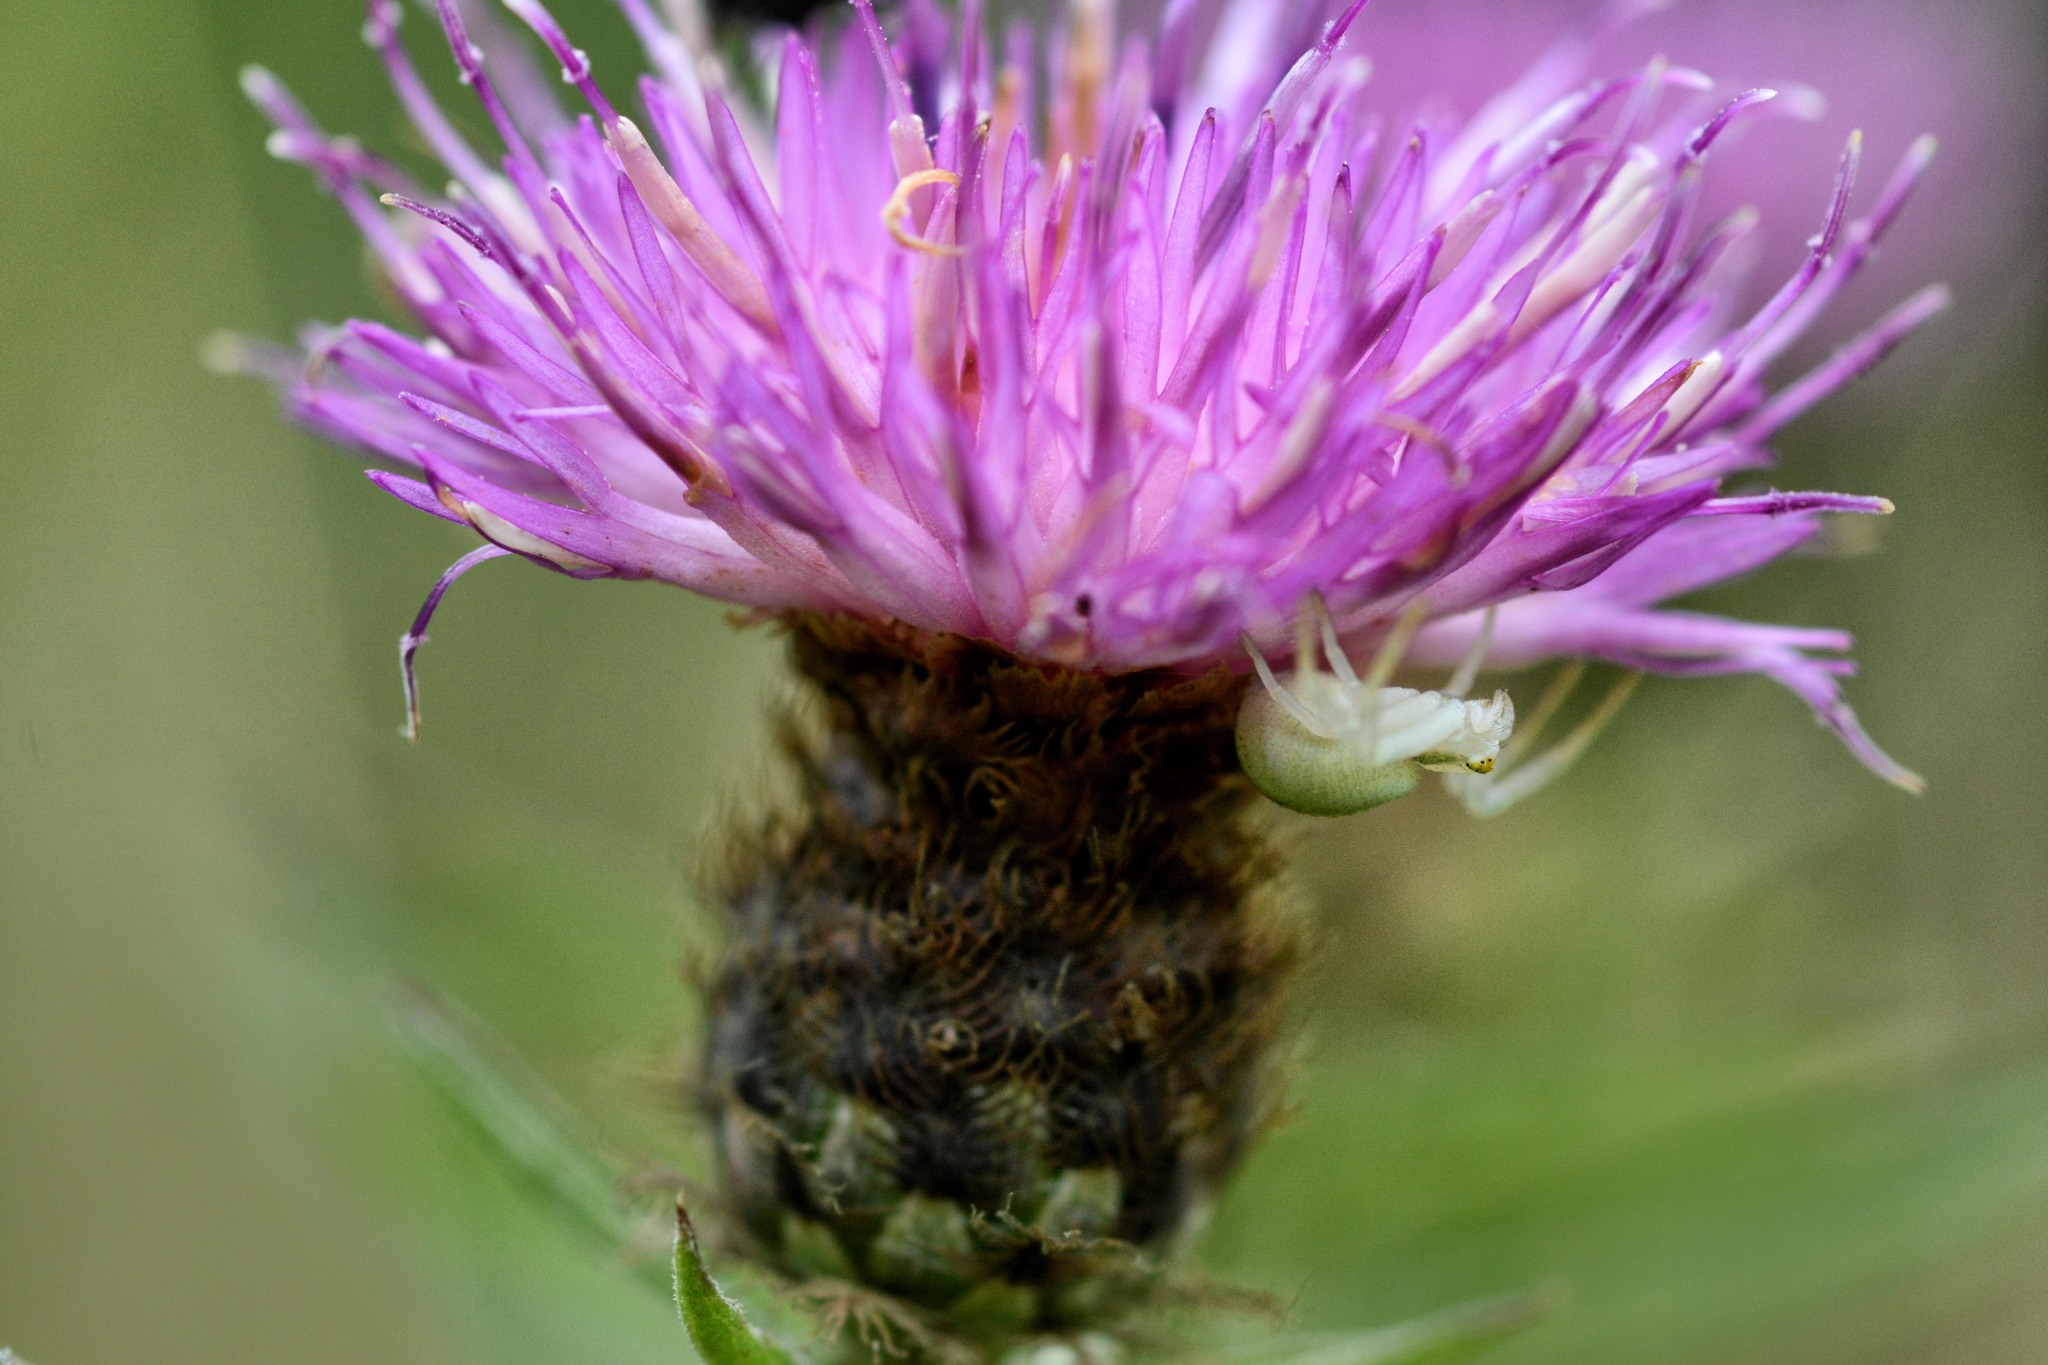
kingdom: Animalia
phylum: Arthropoda
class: Arachnida
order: Araneae
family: Thomisidae
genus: Misumena
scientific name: Misumena vatia
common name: Goldenrod crab spider
